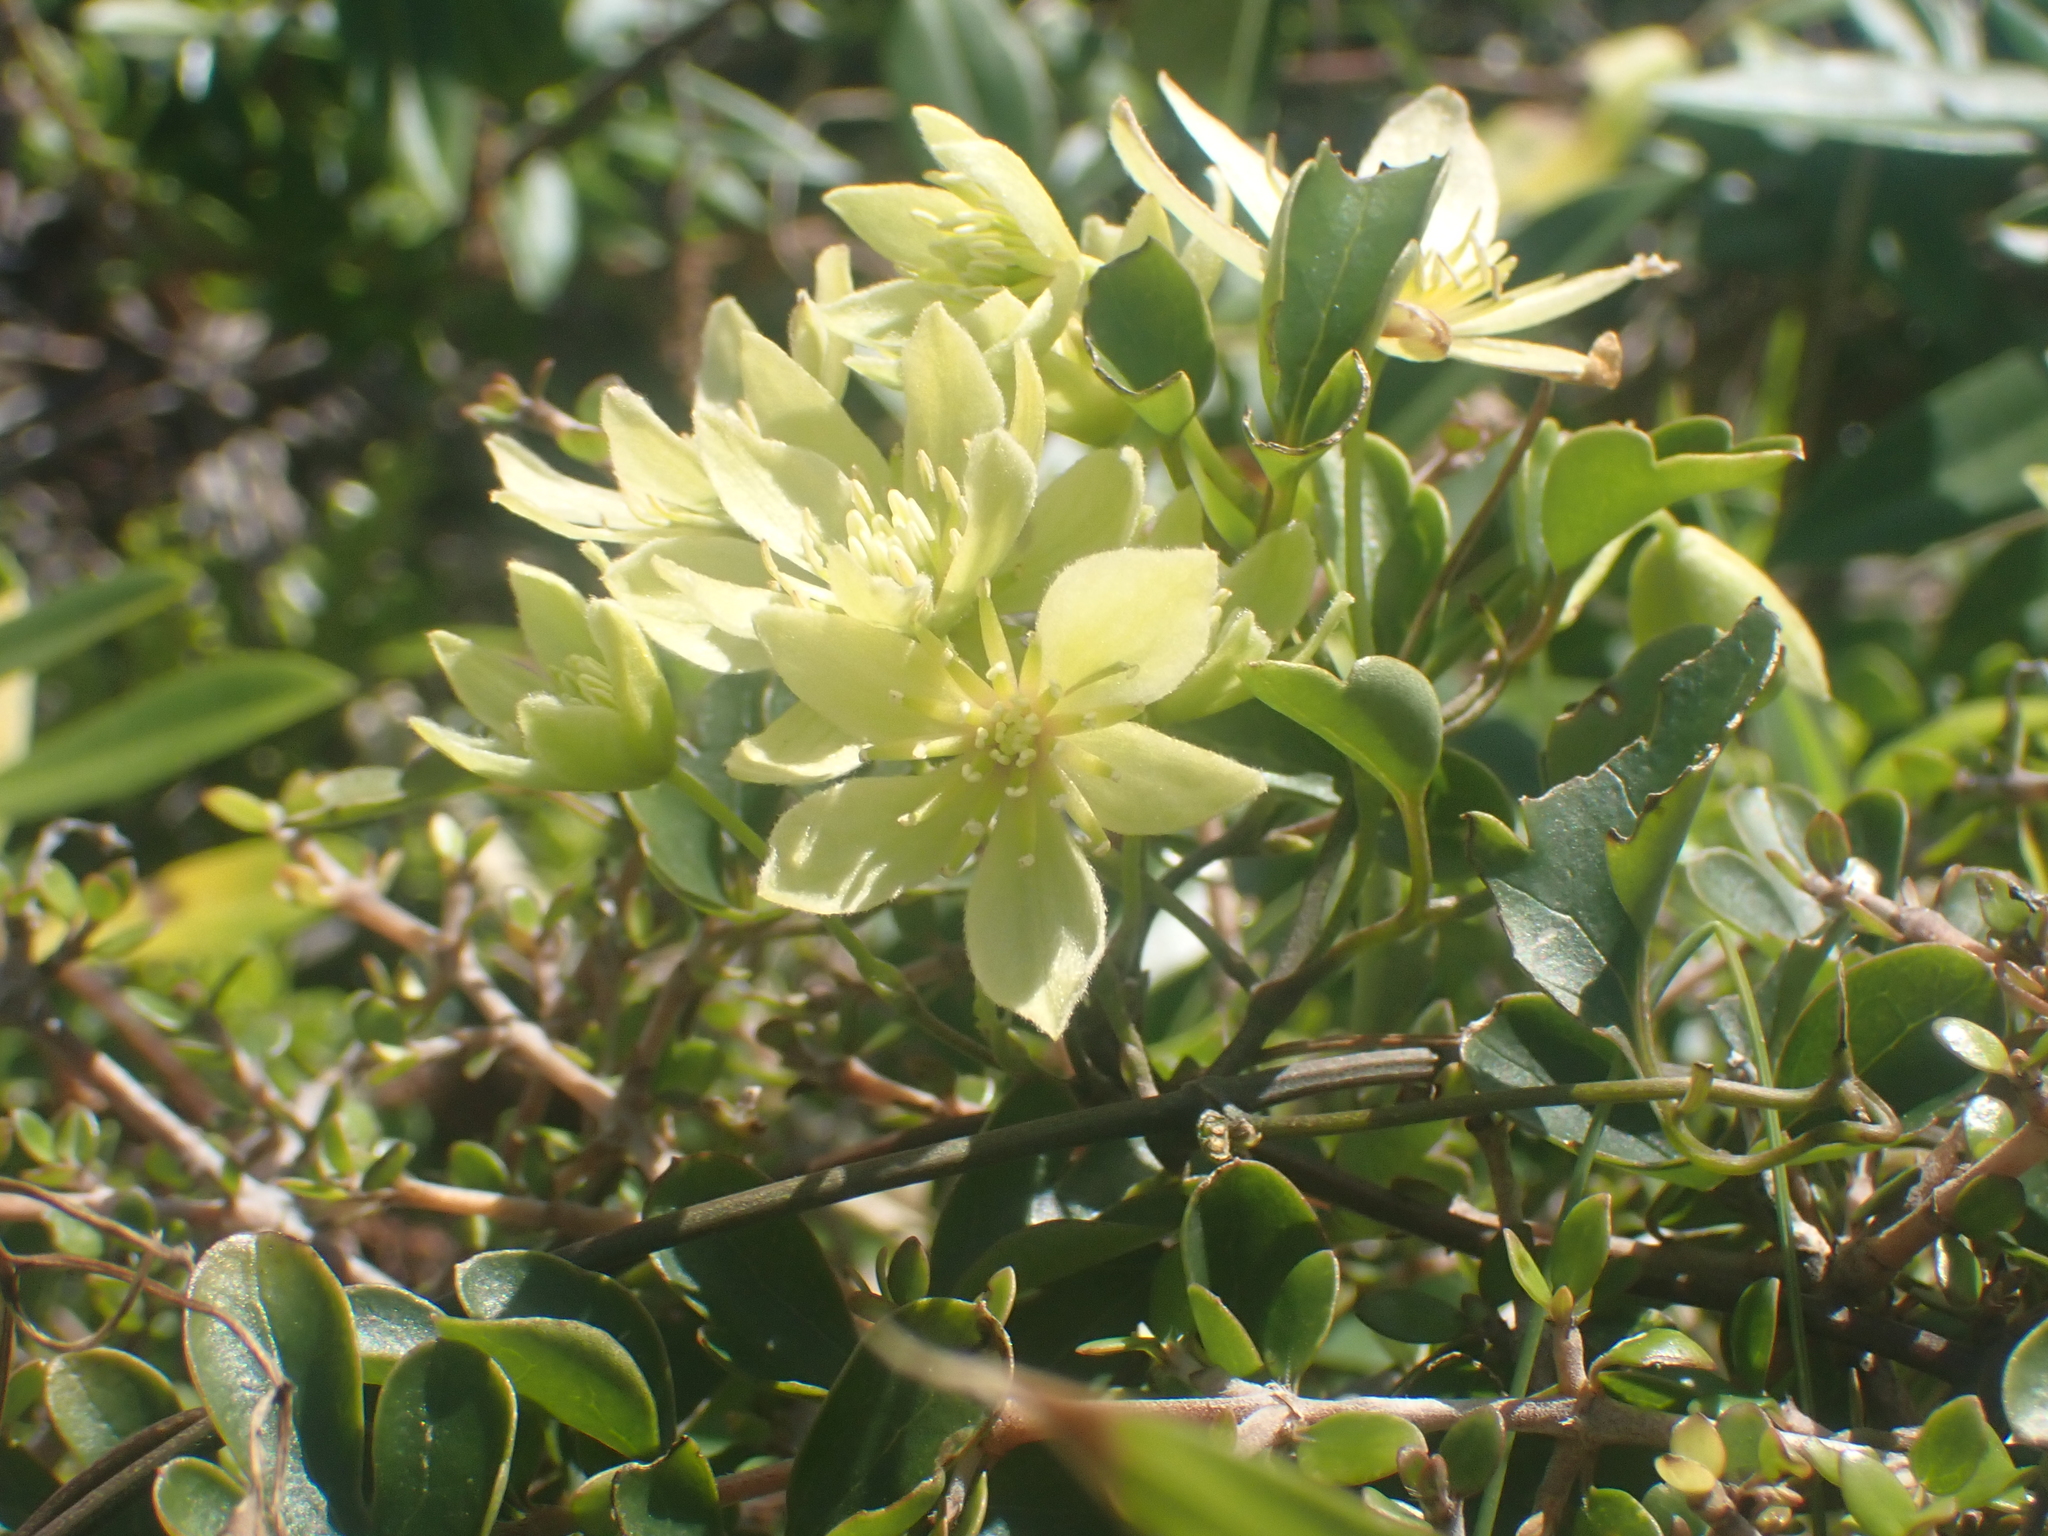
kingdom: Plantae
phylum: Tracheophyta
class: Magnoliopsida
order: Ranunculales
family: Ranunculaceae
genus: Clematis
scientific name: Clematis forsteri
